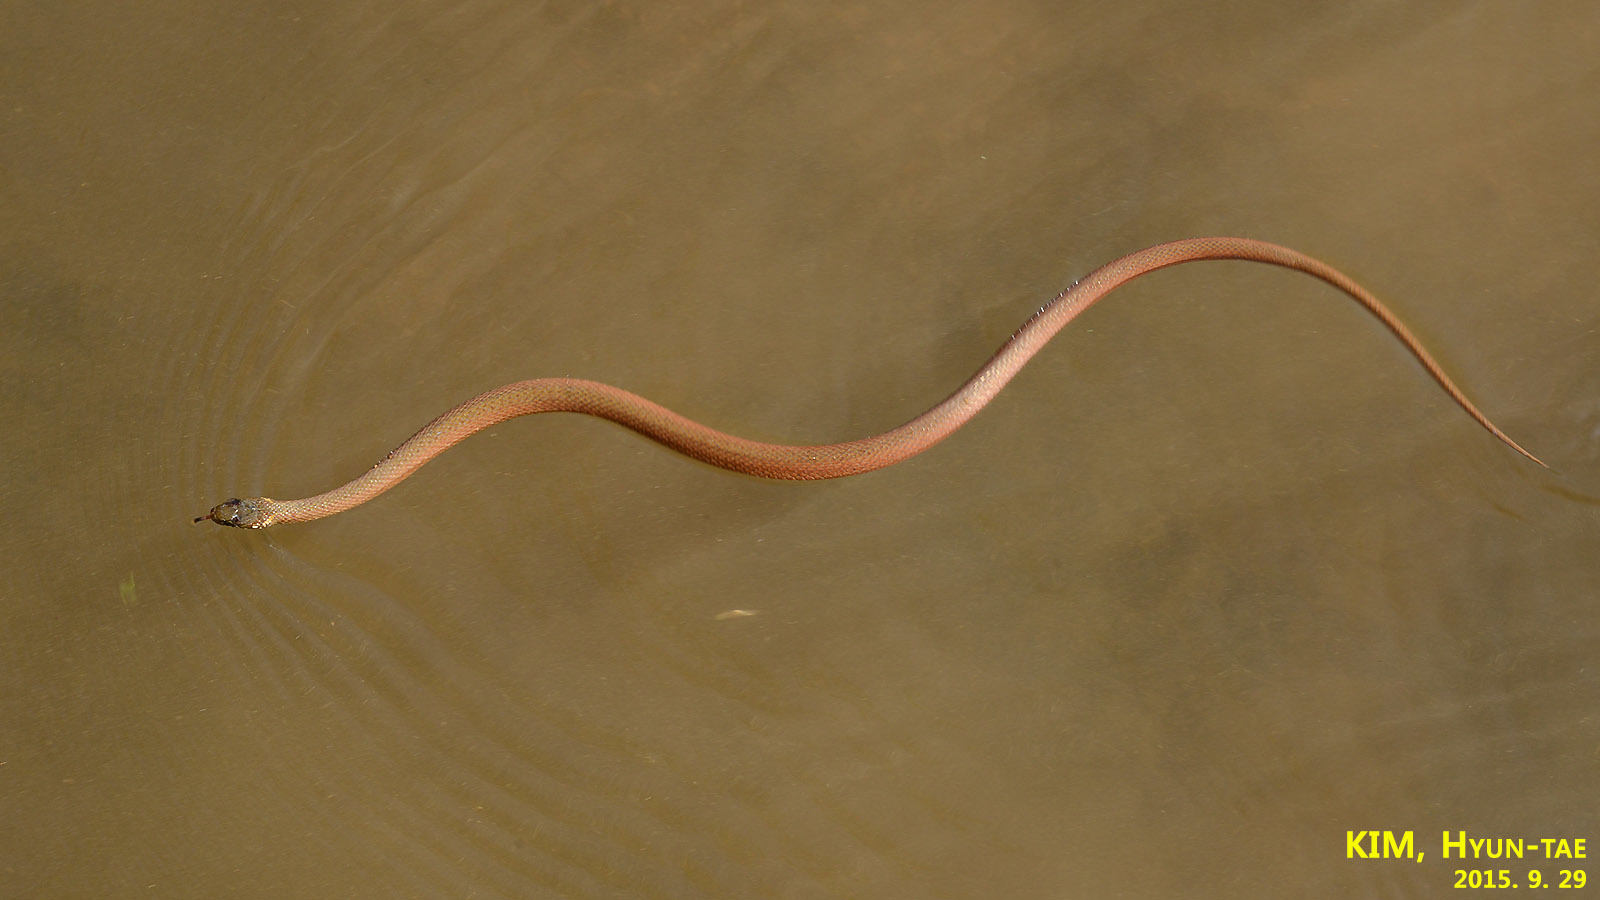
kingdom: Animalia
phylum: Chordata
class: Squamata
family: Colubridae
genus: Hebius
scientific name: Hebius vibakari
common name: Japanese keelback
